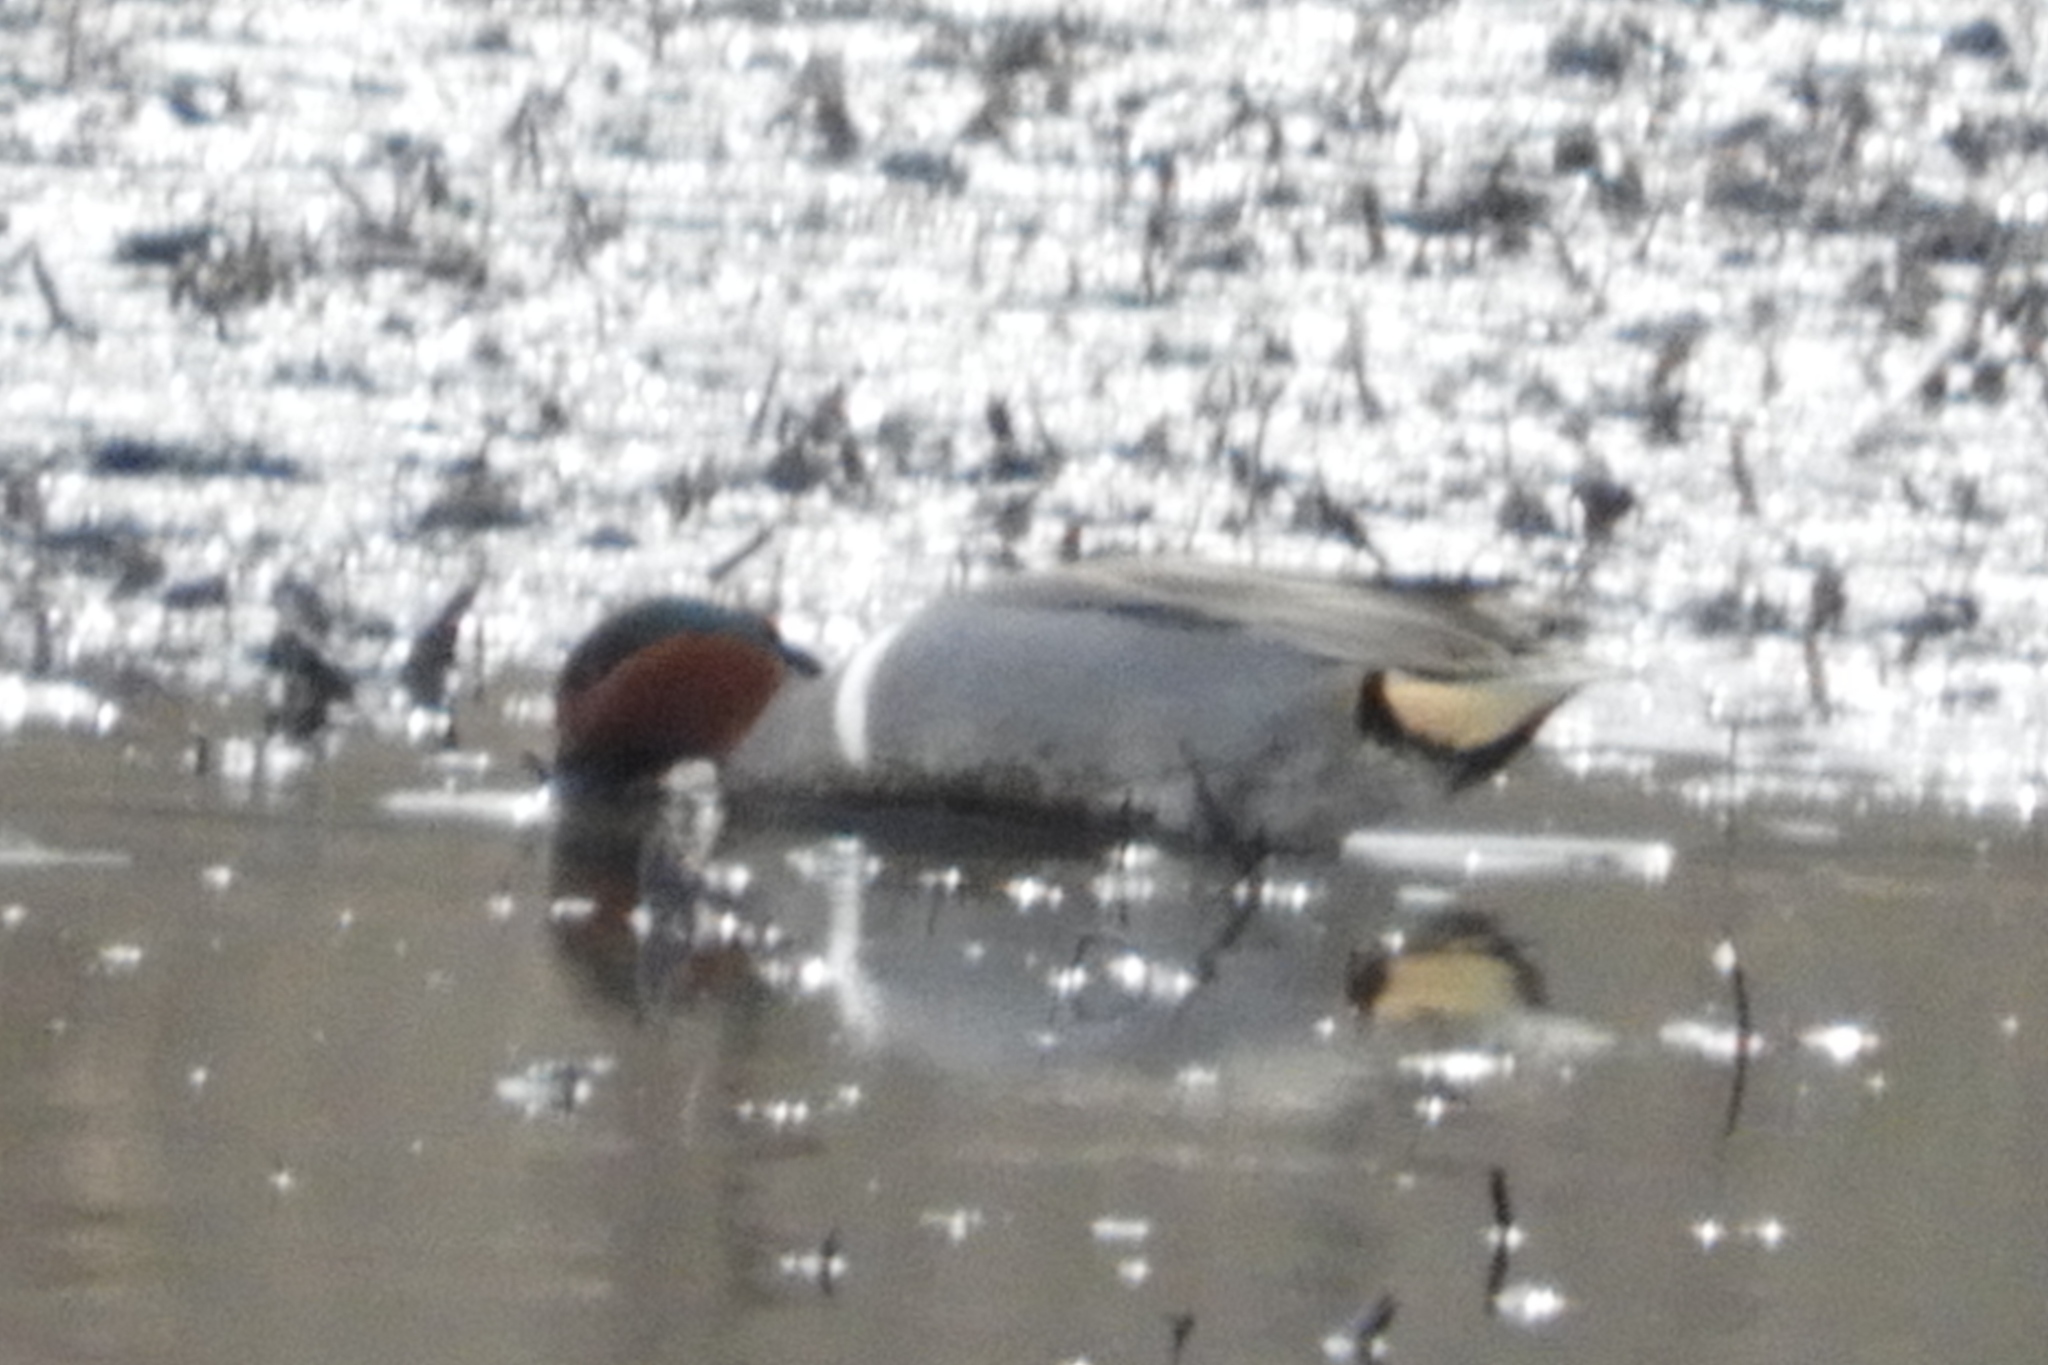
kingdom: Animalia
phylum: Chordata
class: Aves
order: Anseriformes
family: Anatidae
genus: Anas
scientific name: Anas crecca
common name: Eurasian teal
